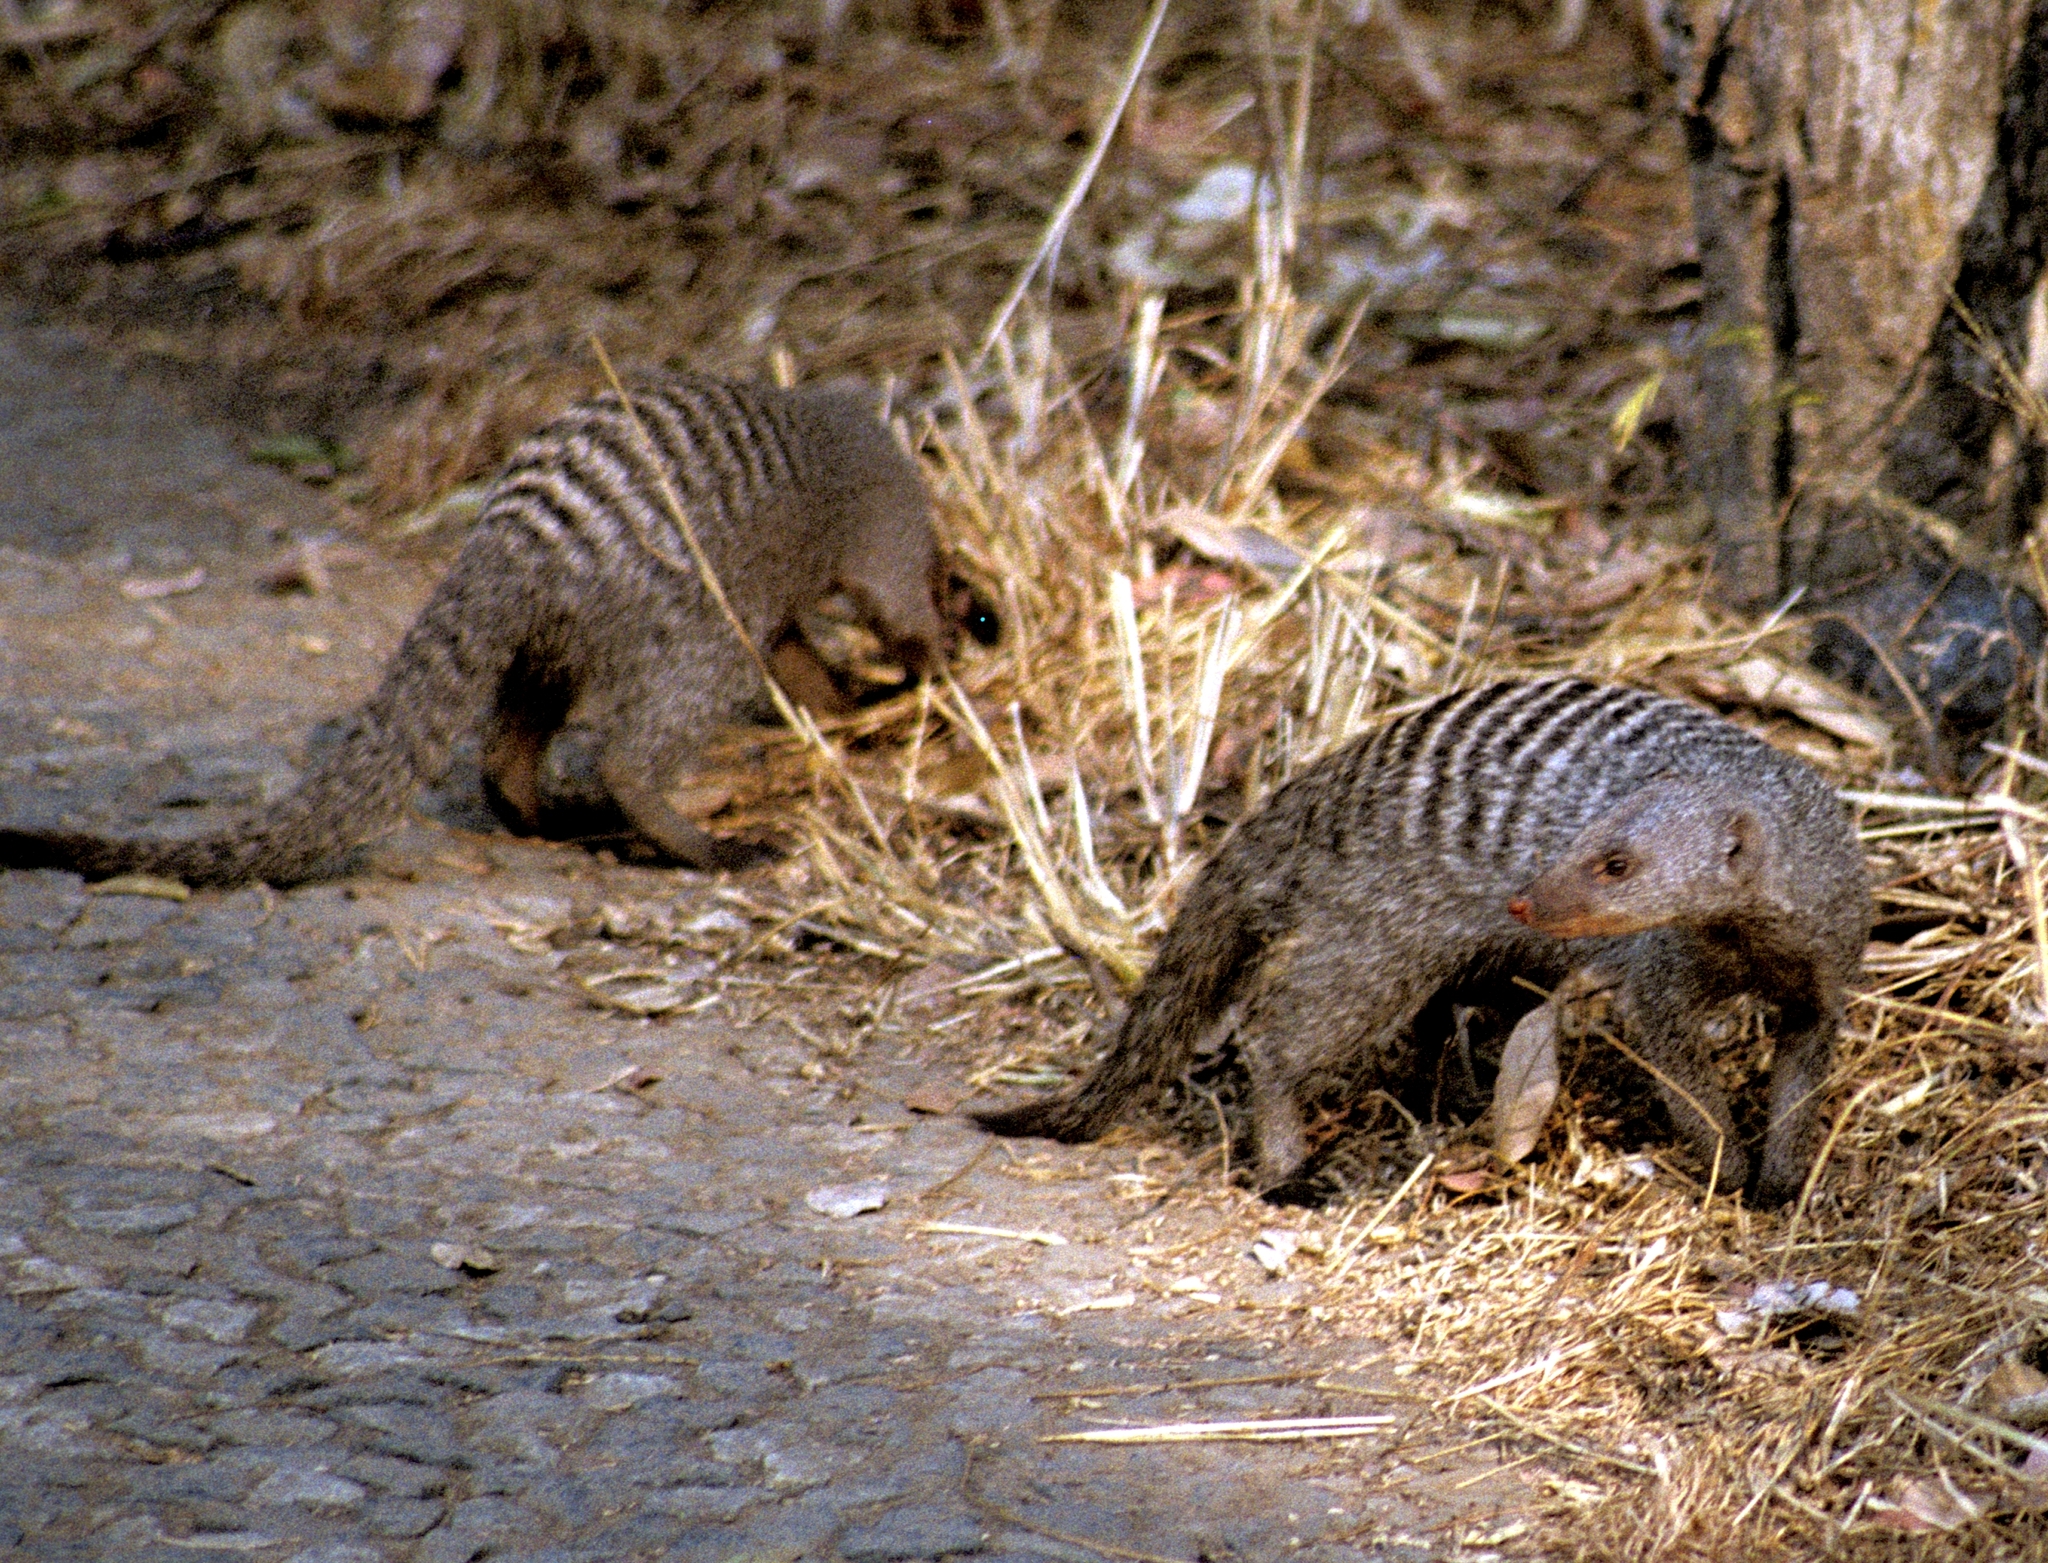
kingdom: Animalia
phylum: Chordata
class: Mammalia
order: Carnivora
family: Herpestidae
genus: Mungos
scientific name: Mungos mungo
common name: Banded mongoose
